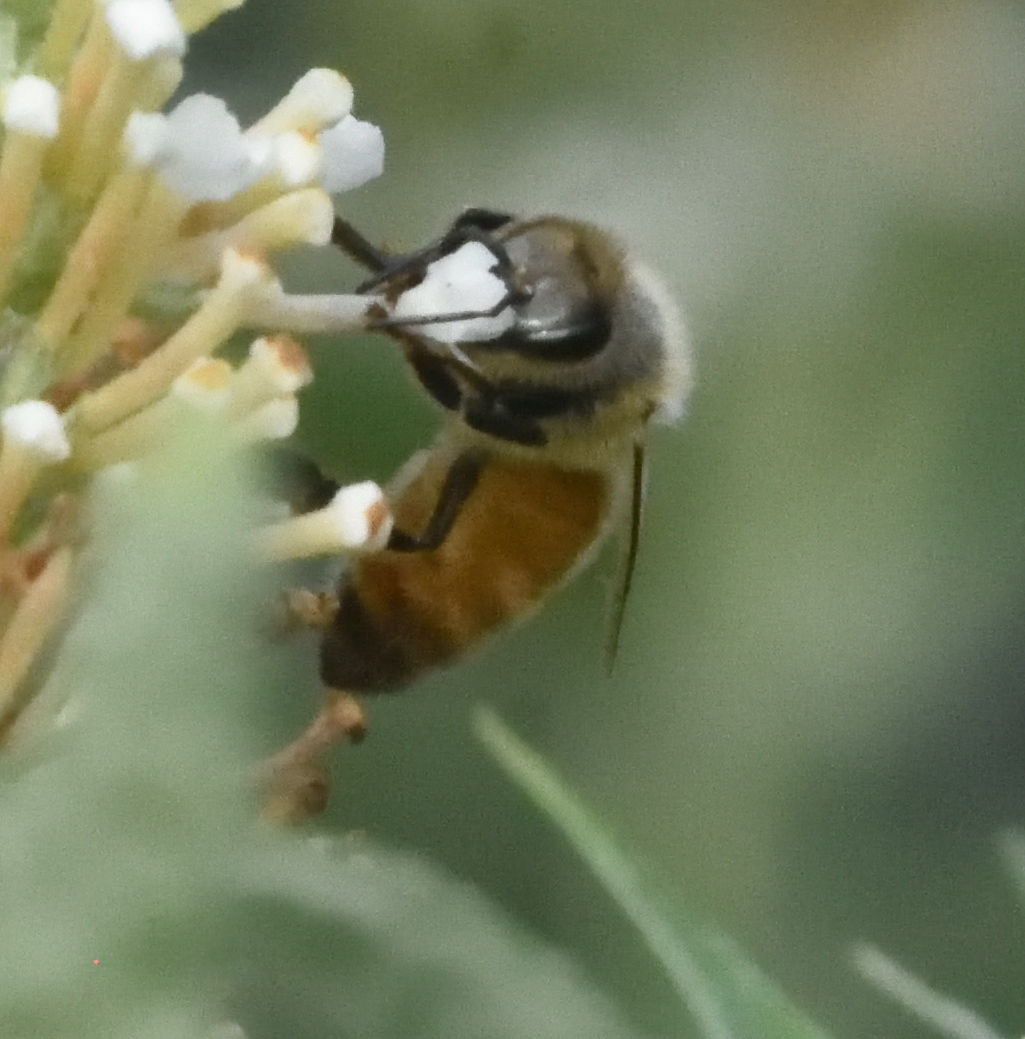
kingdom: Animalia
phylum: Arthropoda
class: Insecta
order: Hymenoptera
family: Apidae
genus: Apis
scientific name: Apis mellifera
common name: Honey bee
